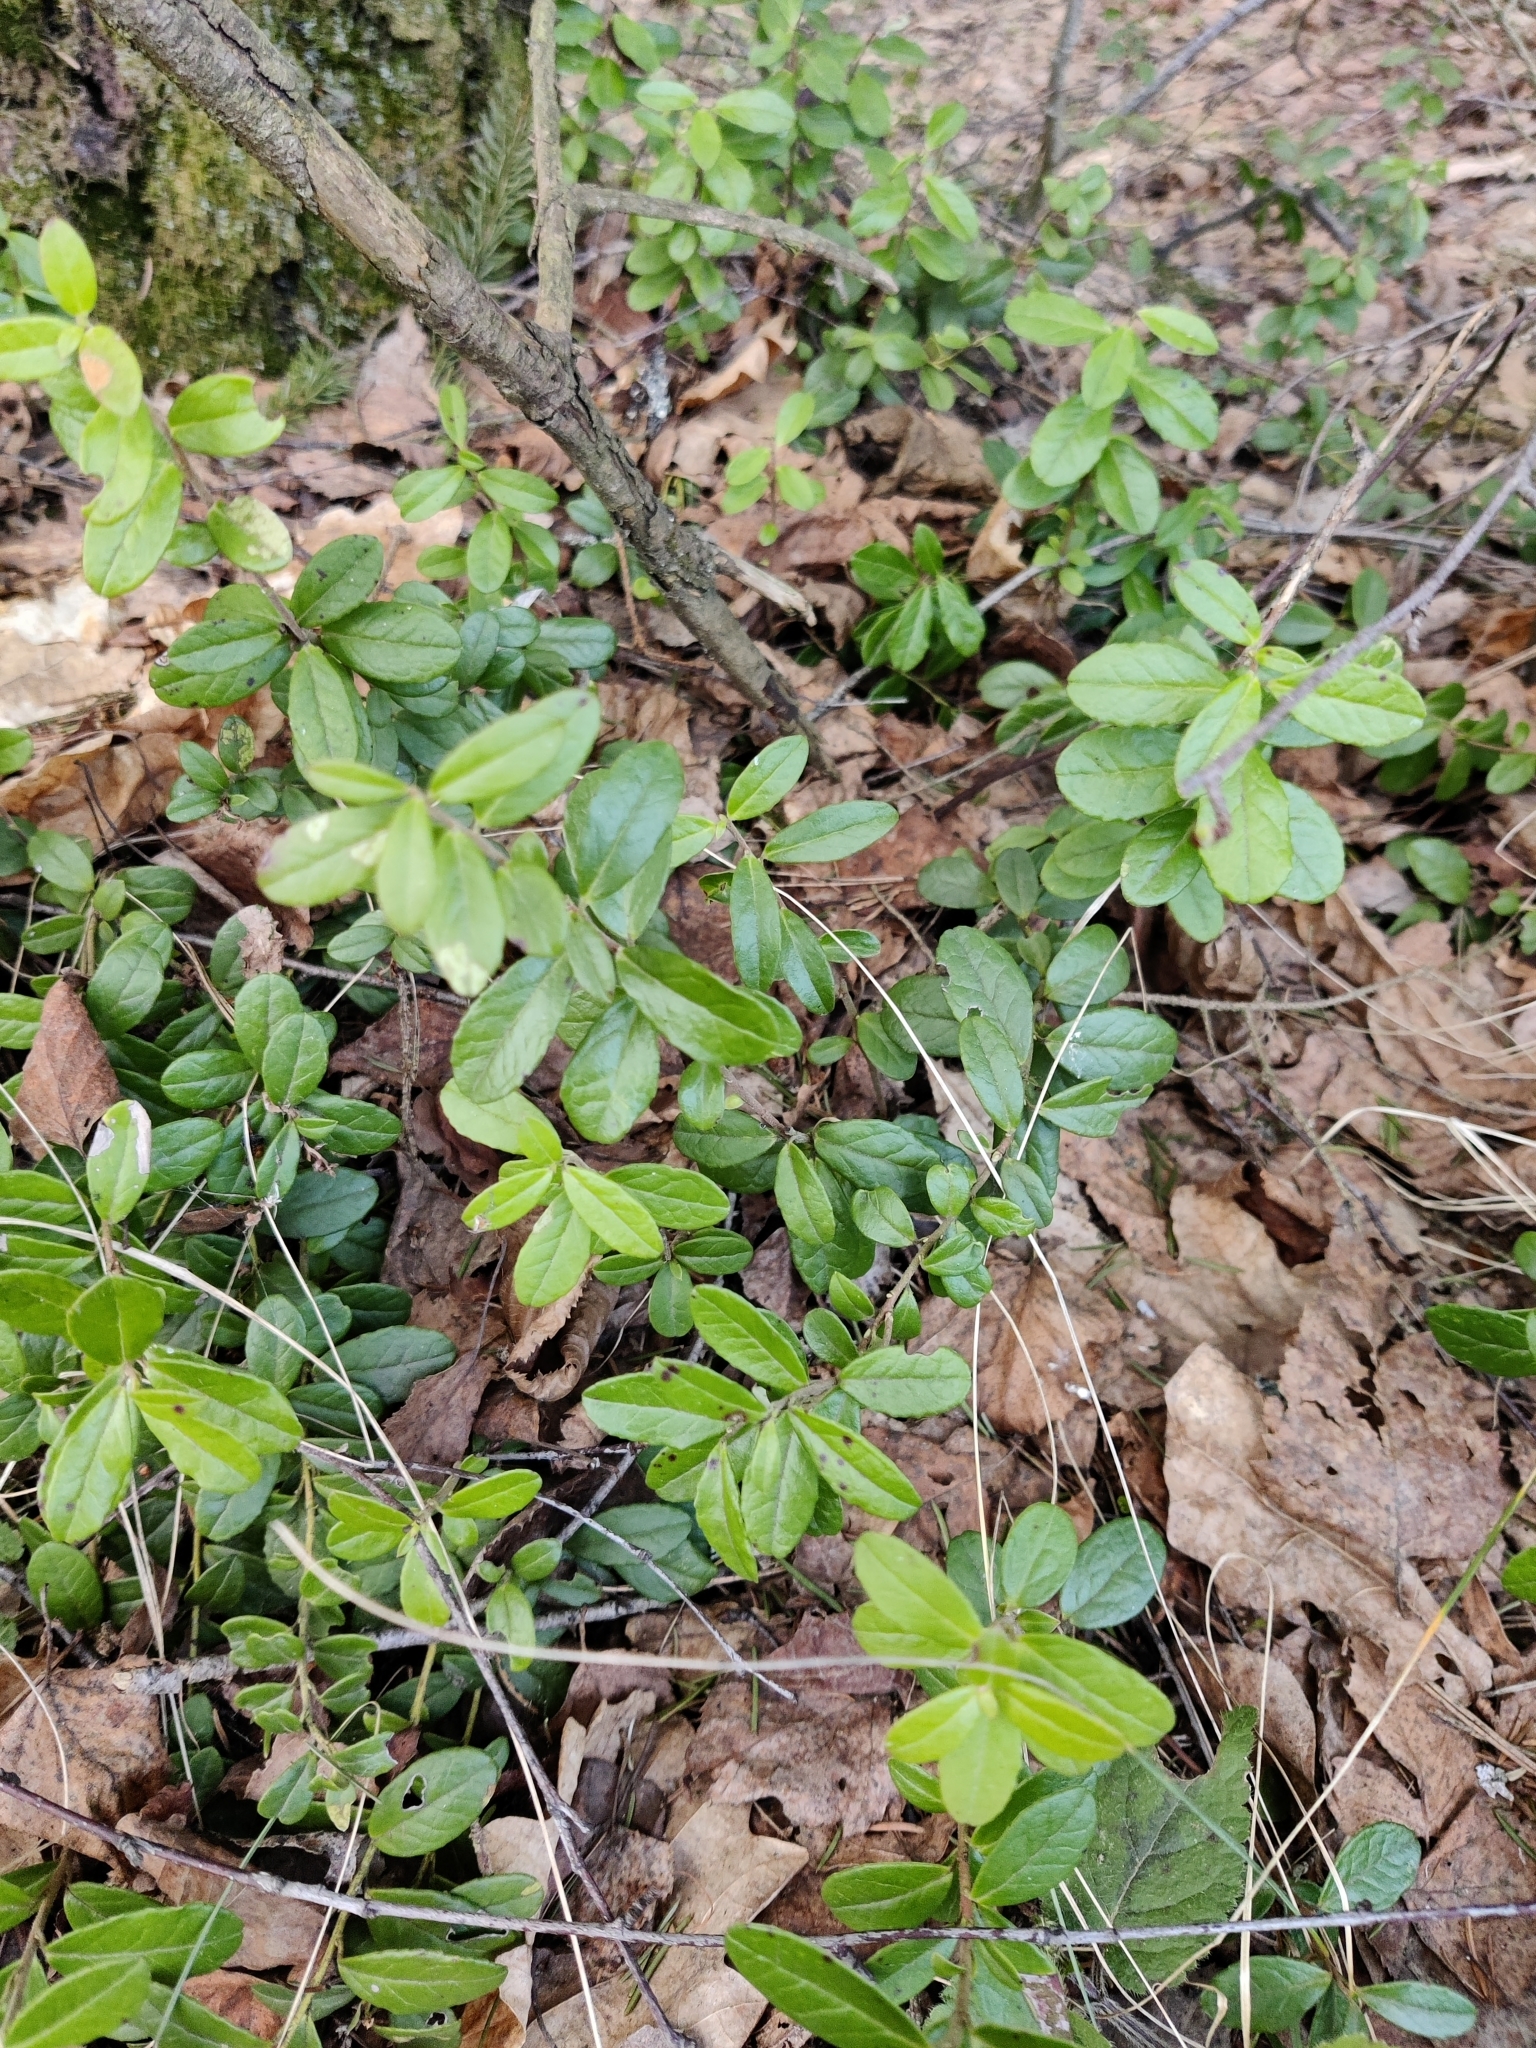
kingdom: Plantae
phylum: Tracheophyta
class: Magnoliopsida
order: Ericales
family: Ericaceae
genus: Vaccinium
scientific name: Vaccinium vitis-idaea
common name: Cowberry
